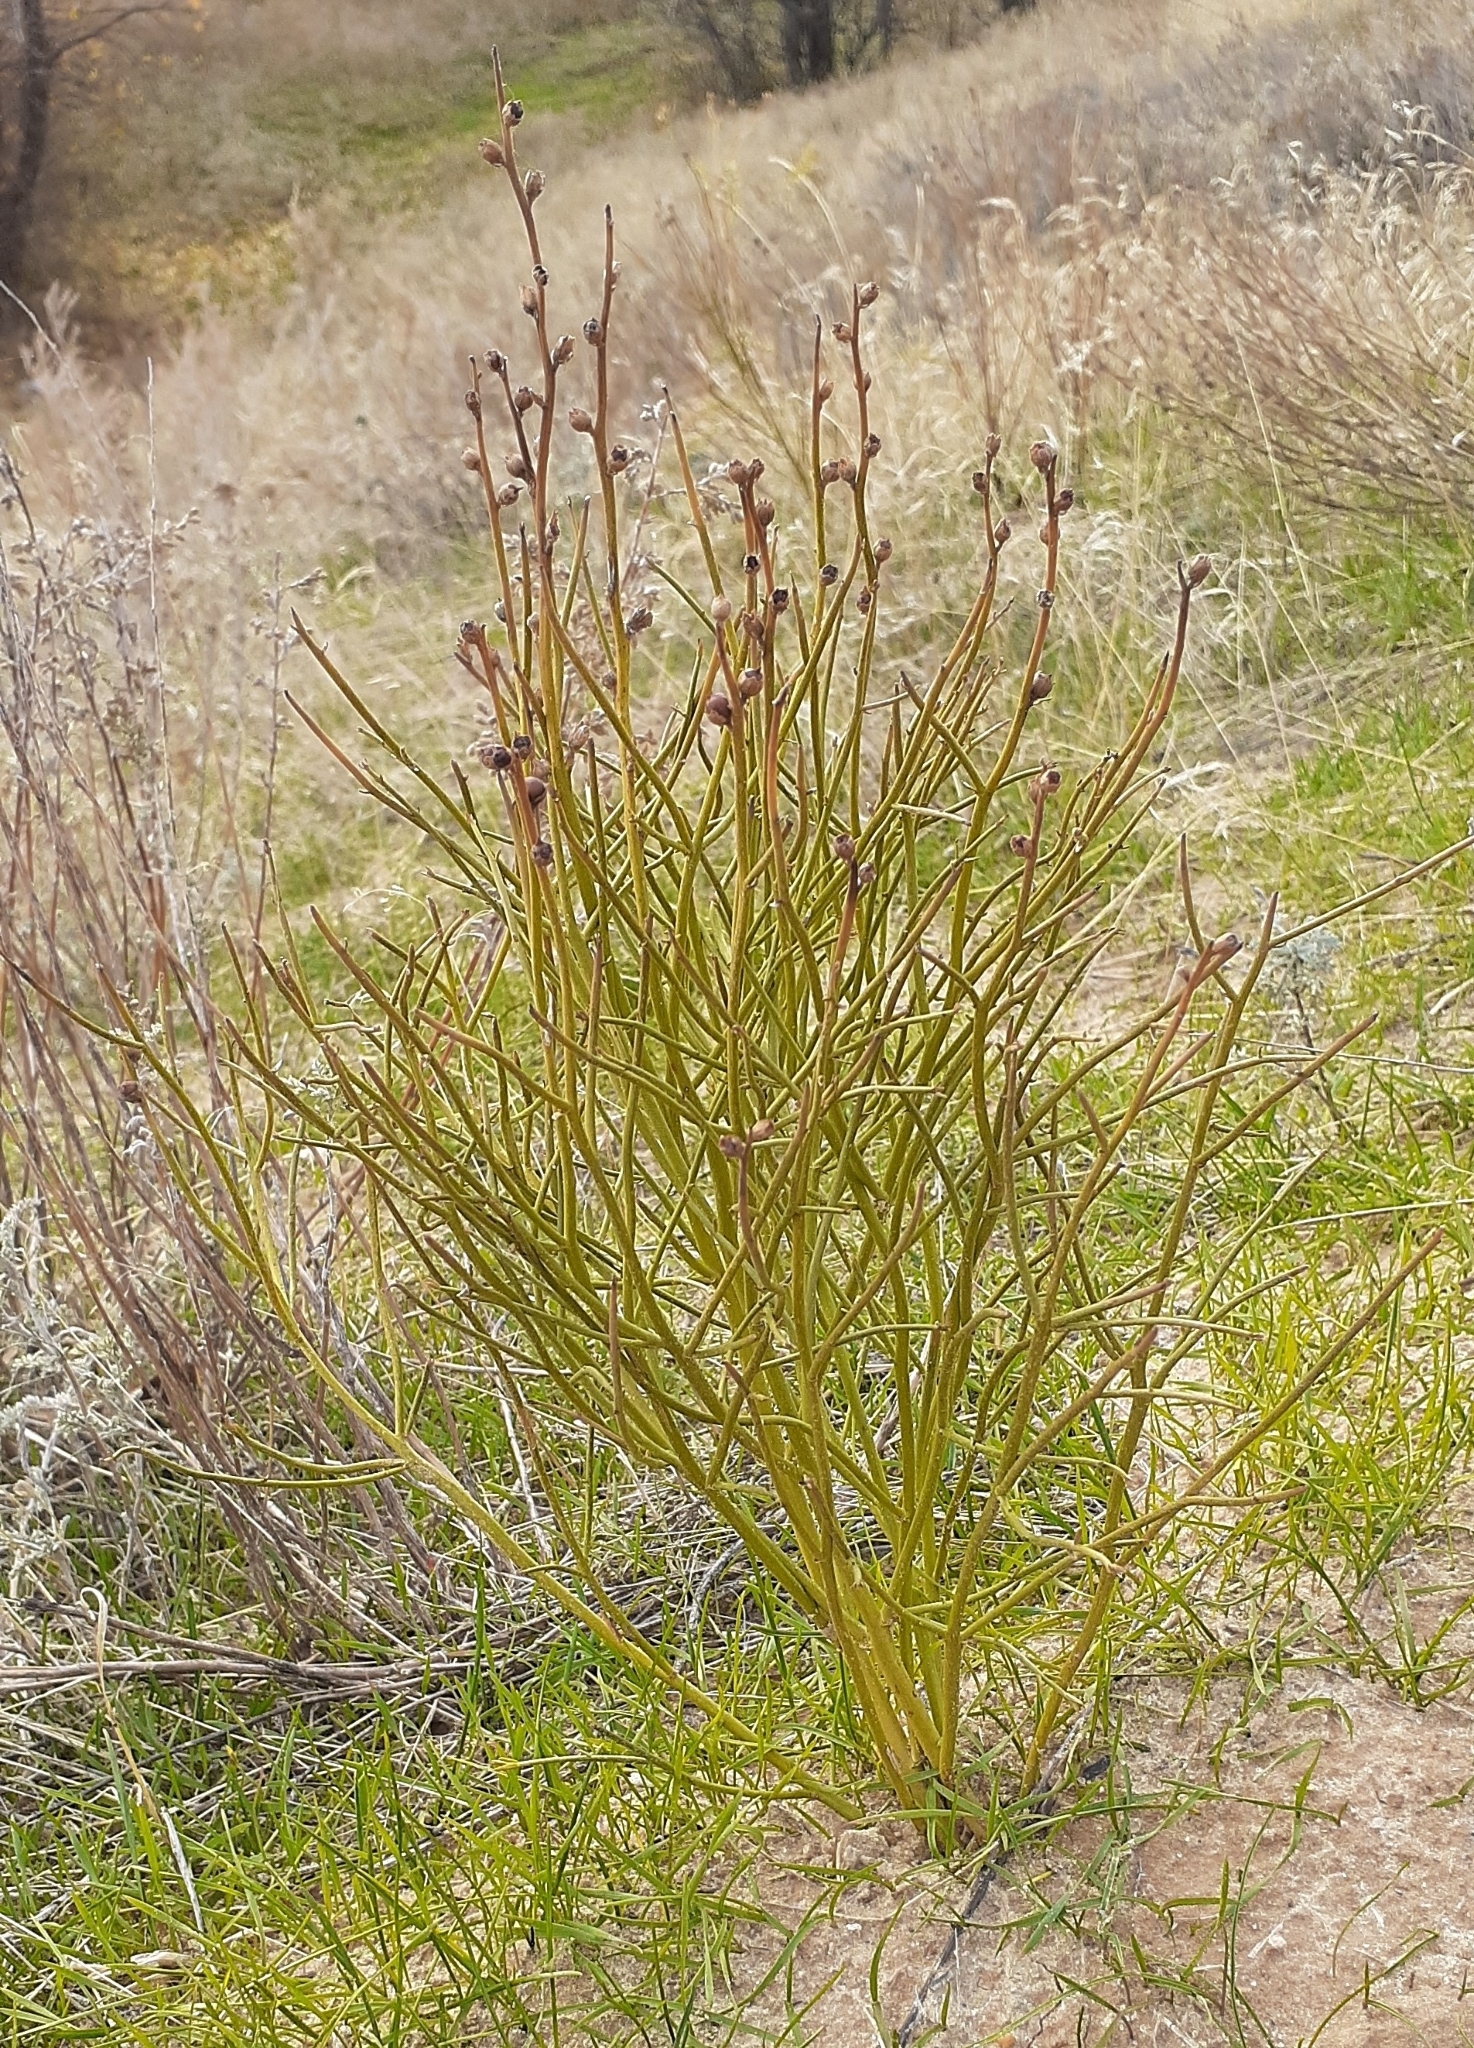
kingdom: Plantae
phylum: Tracheophyta
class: Magnoliopsida
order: Lamiales
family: Mazaceae
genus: Dodartia
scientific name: Dodartia orientalis
